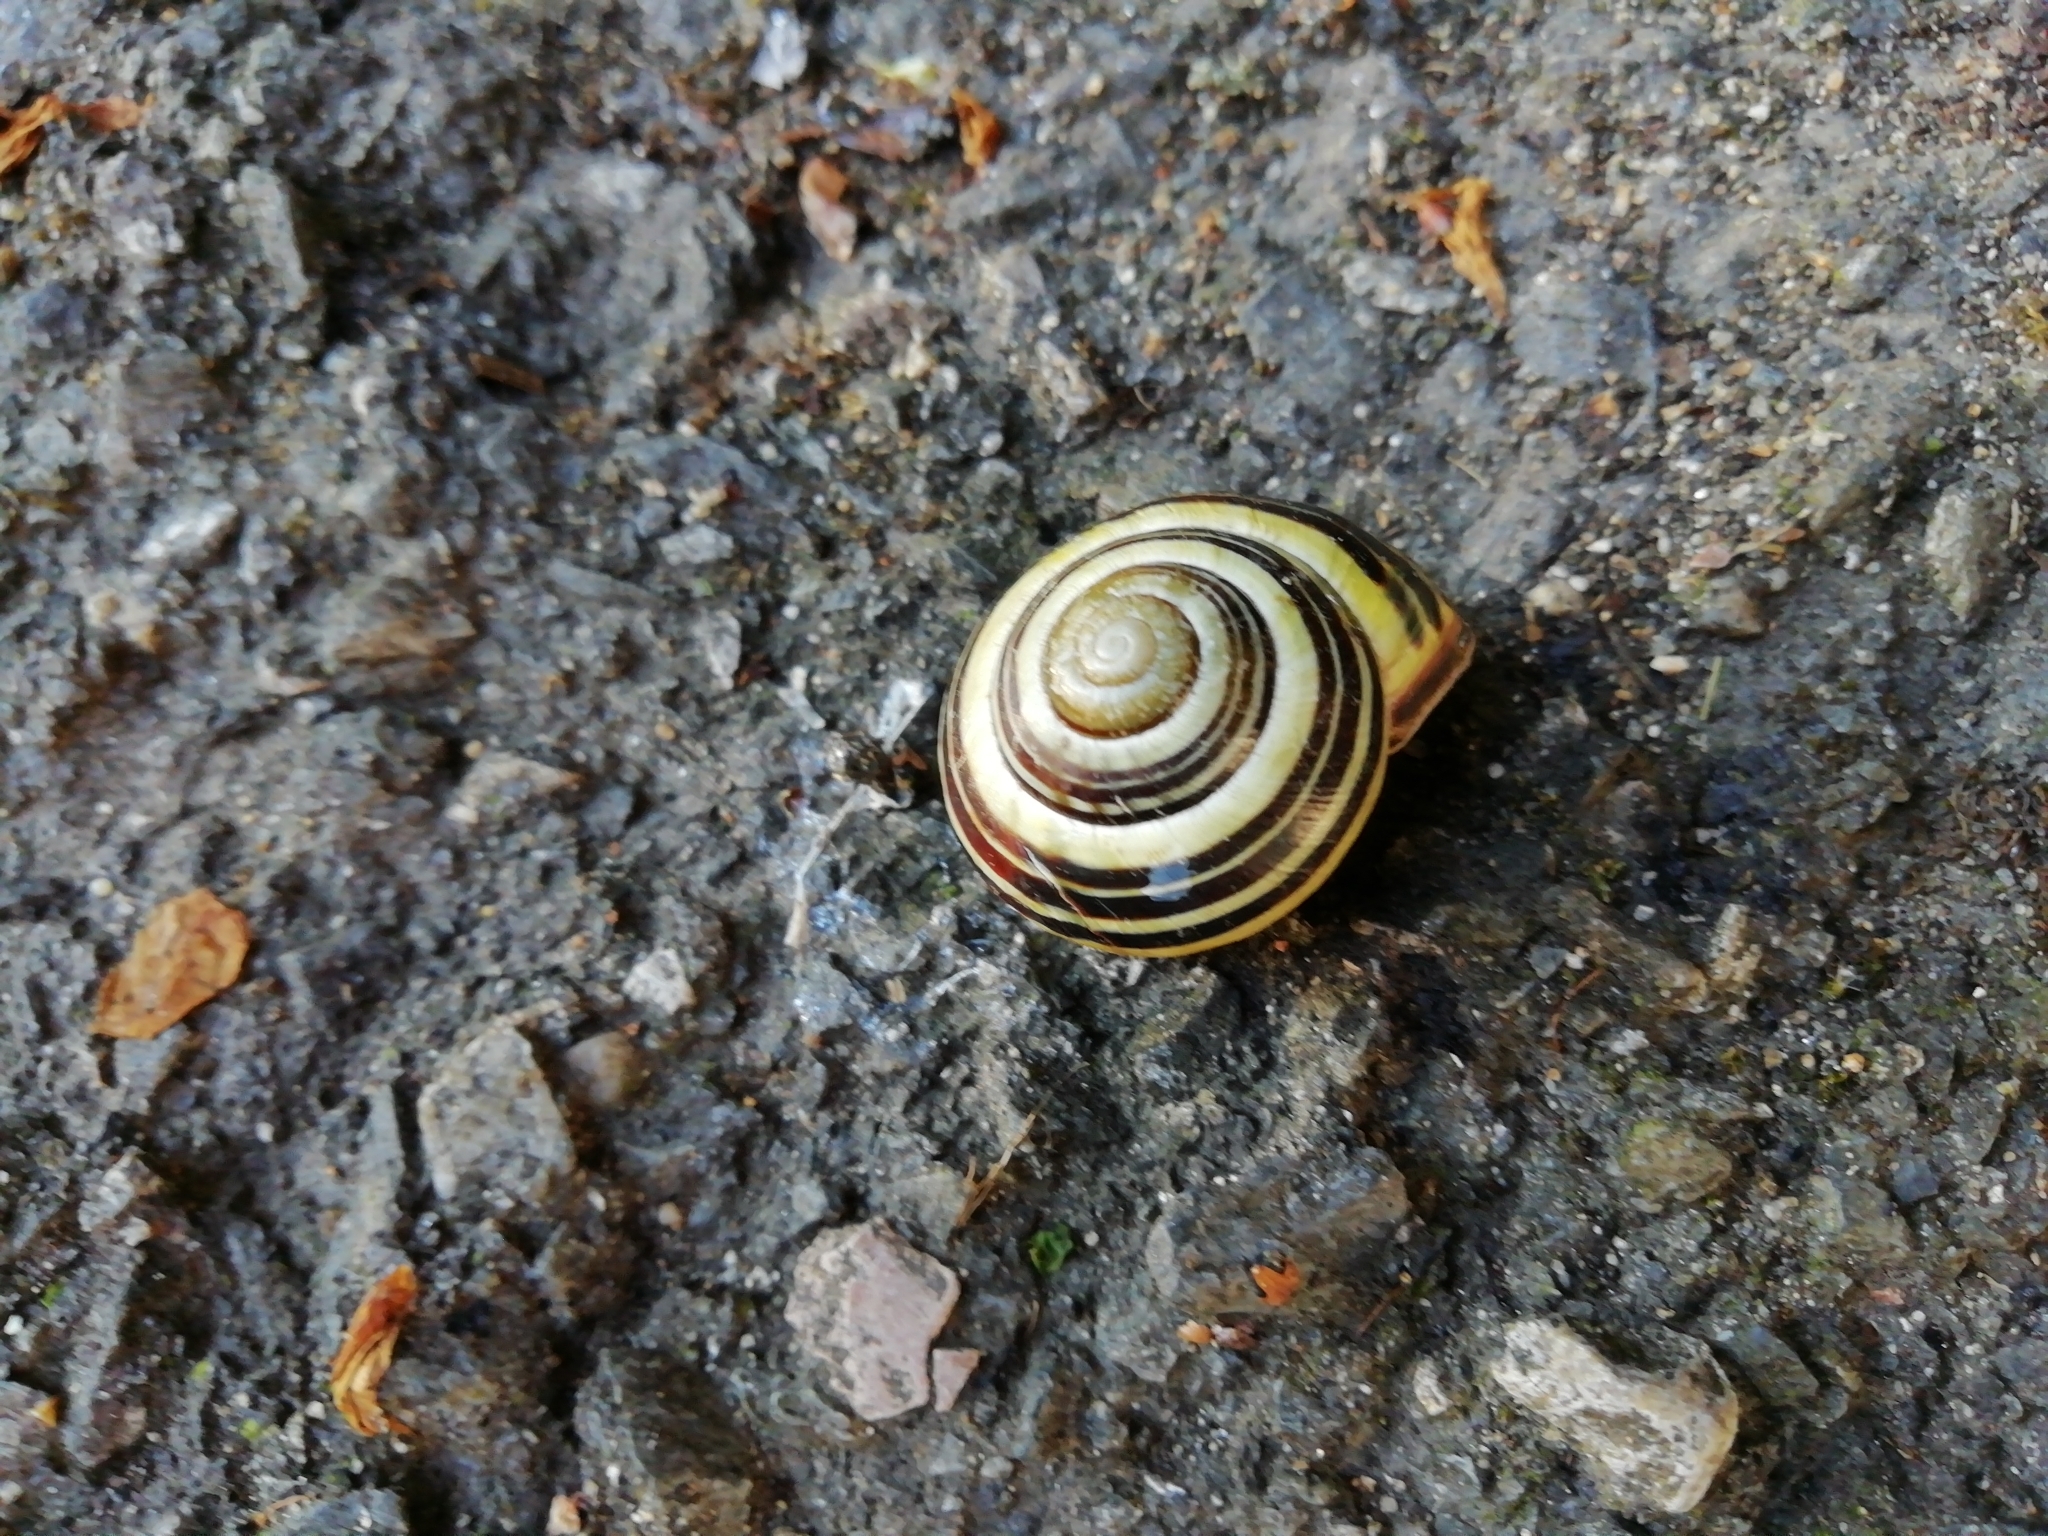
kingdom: Animalia
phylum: Mollusca
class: Gastropoda
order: Stylommatophora
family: Helicidae
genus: Cepaea
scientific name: Cepaea nemoralis
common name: Grovesnail
